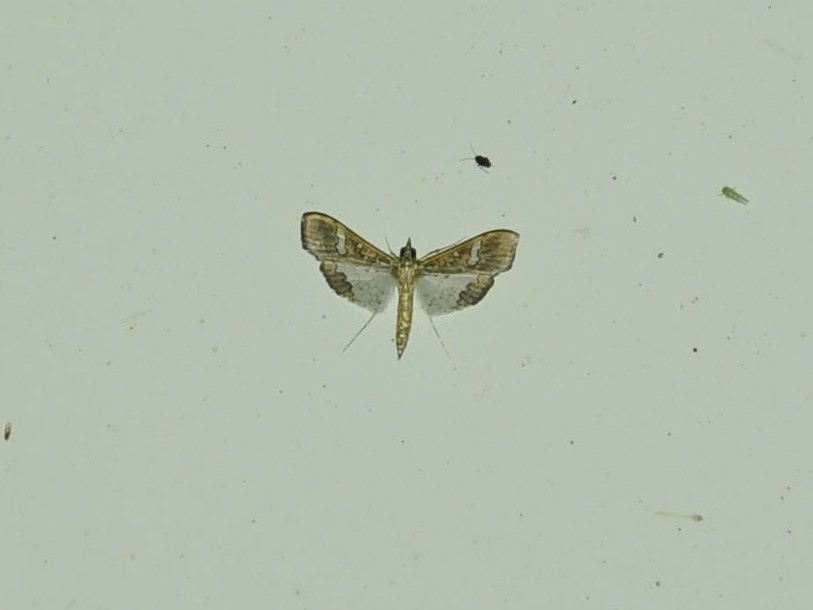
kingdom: Animalia
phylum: Arthropoda
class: Insecta
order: Lepidoptera
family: Crambidae
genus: Maruca
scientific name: Maruca vitrata
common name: Maruca pod borer
